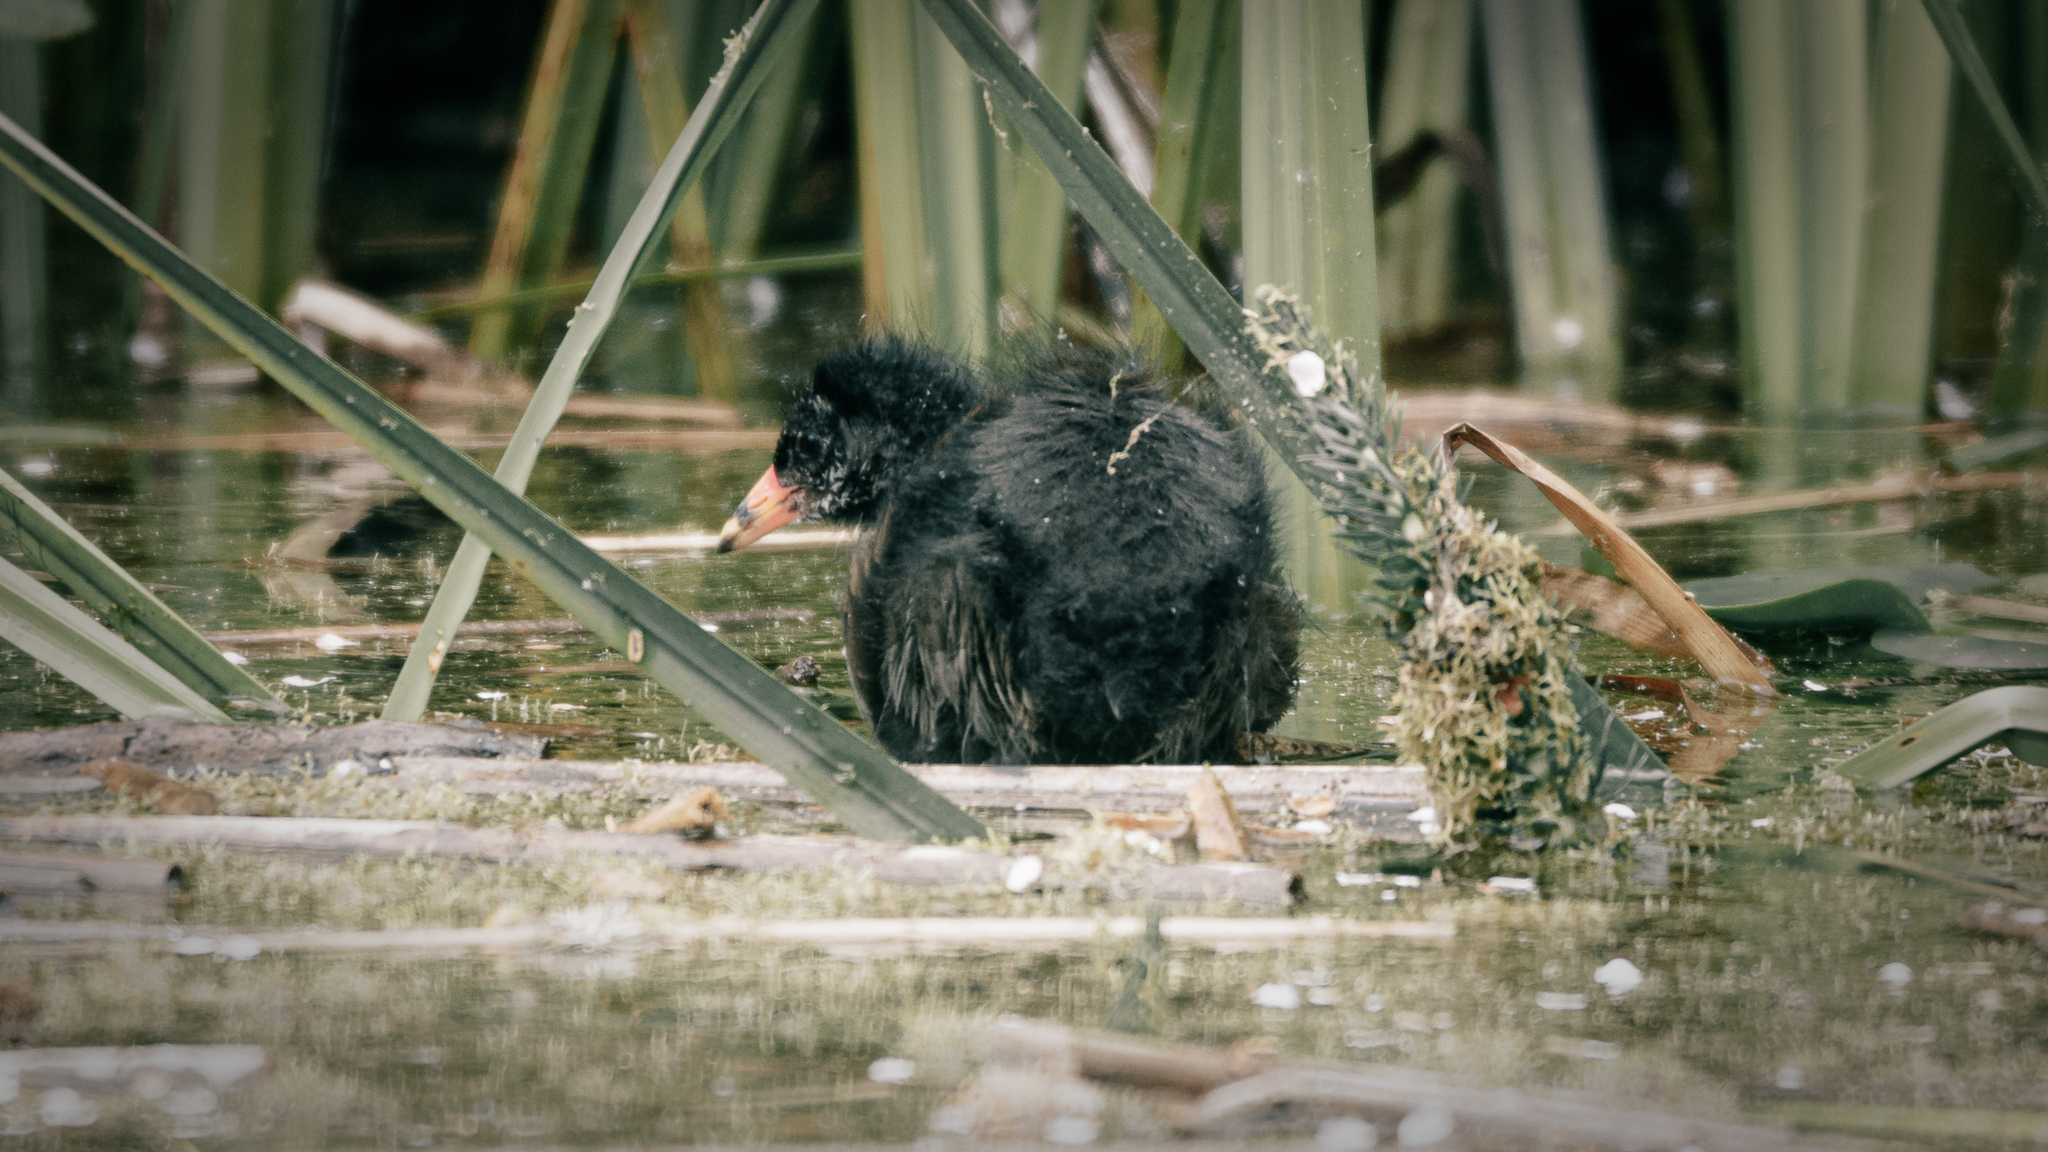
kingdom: Animalia
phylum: Chordata
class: Aves
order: Gruiformes
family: Rallidae
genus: Gallinula
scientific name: Gallinula chloropus
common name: Common moorhen
